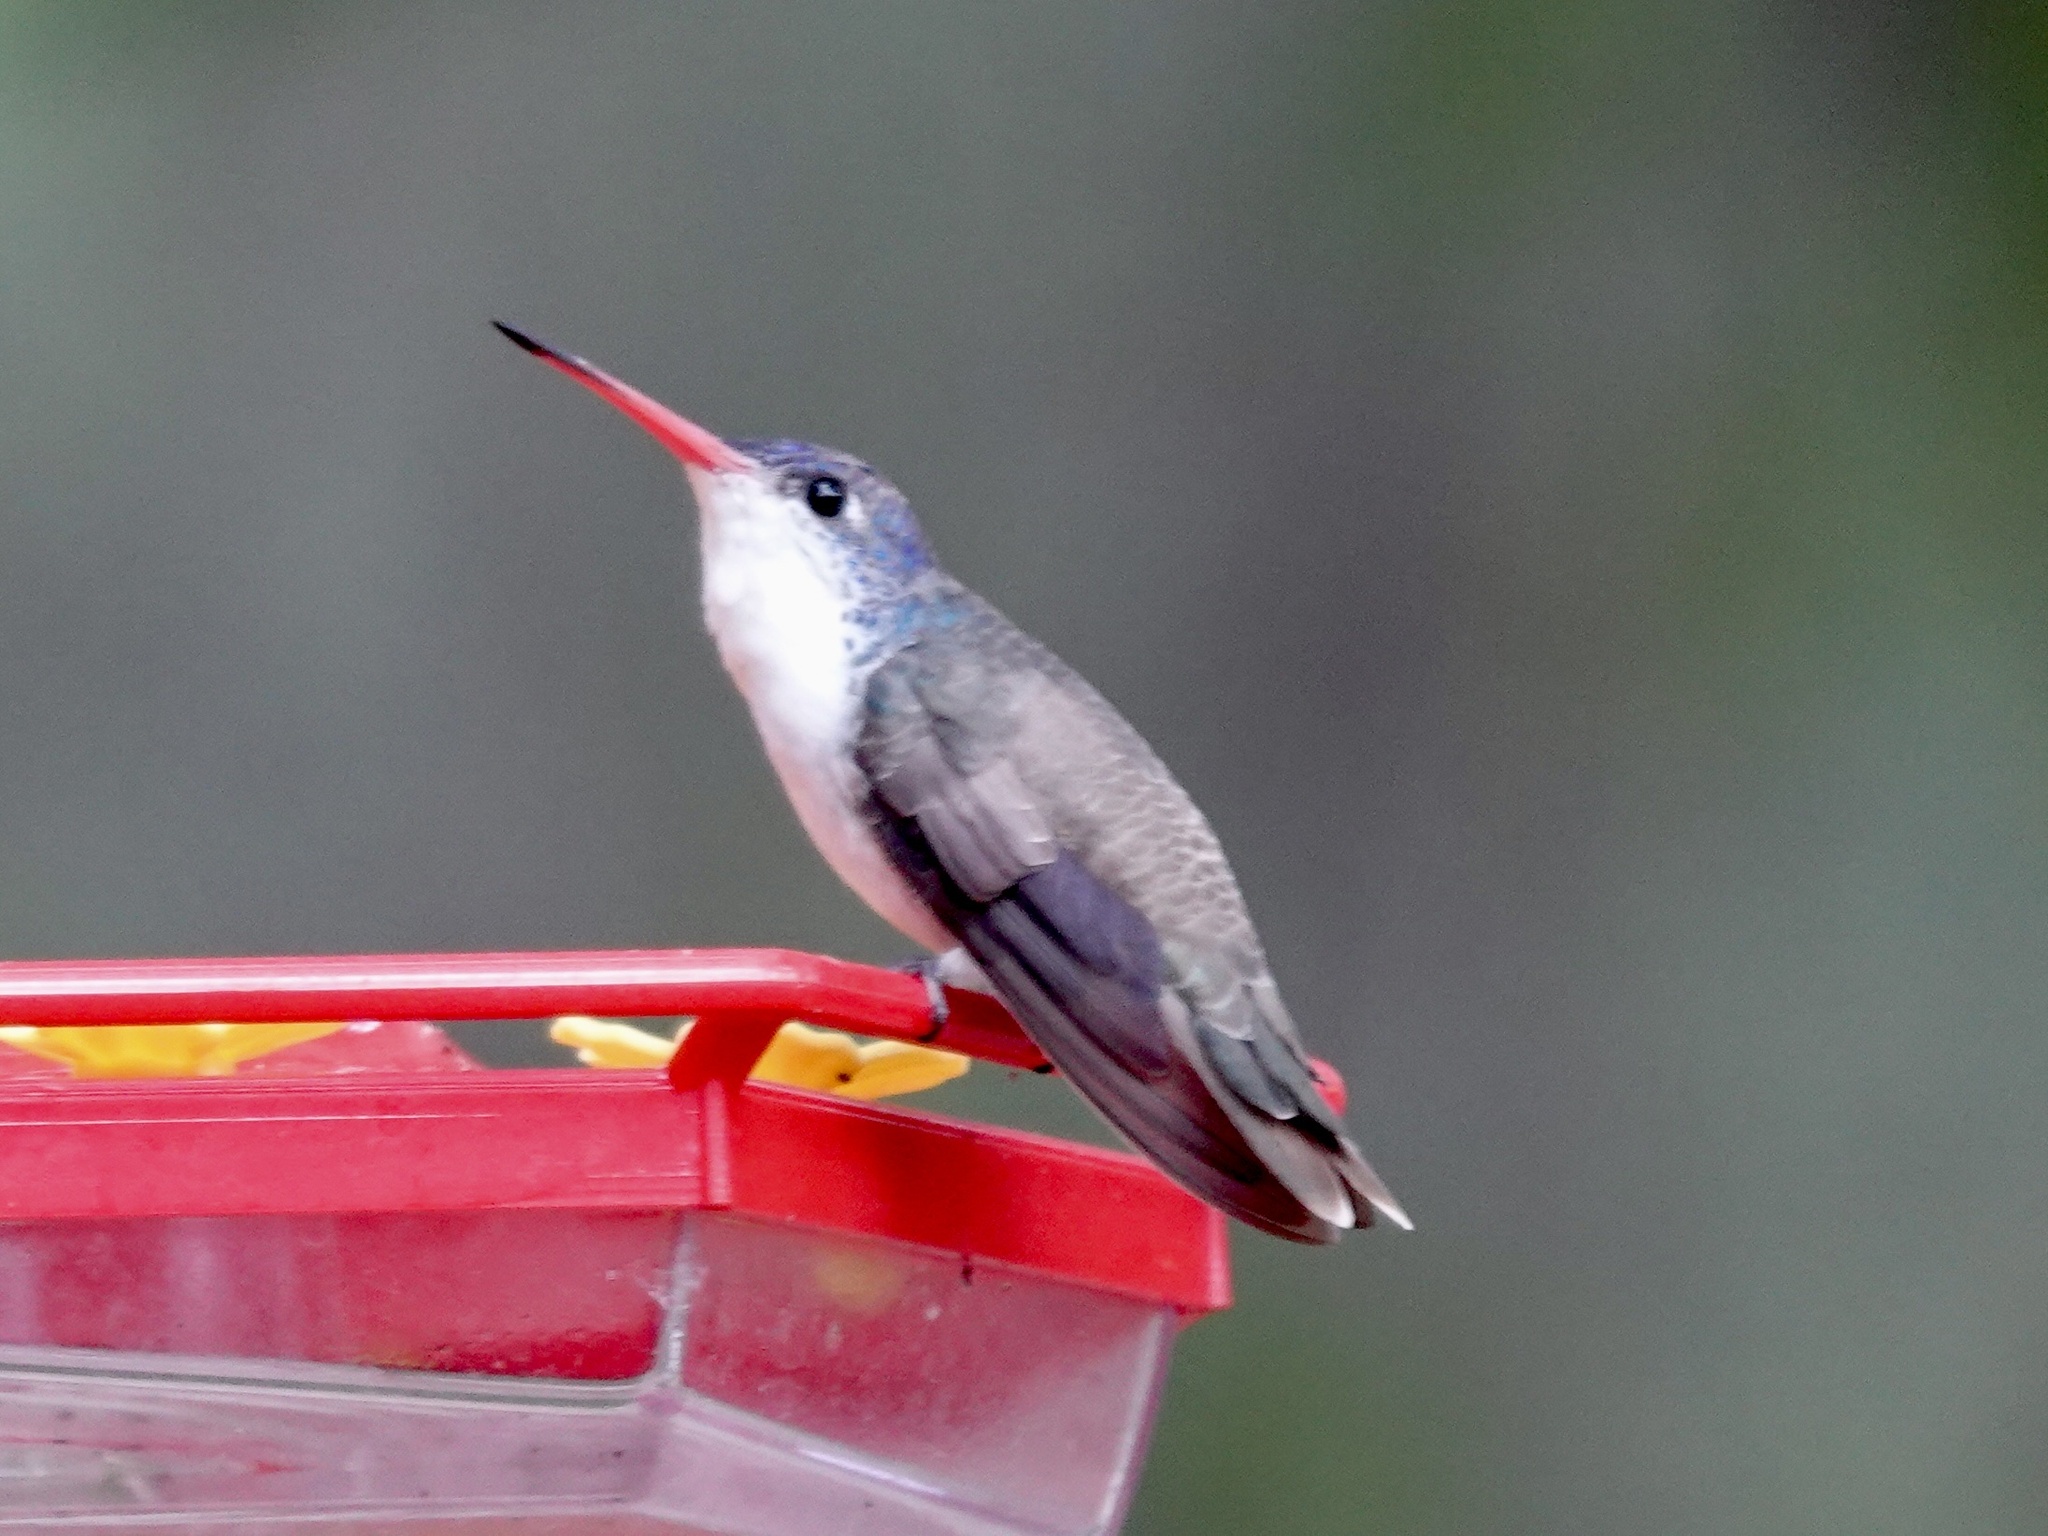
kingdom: Animalia
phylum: Chordata
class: Aves
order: Apodiformes
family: Trochilidae
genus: Leucolia
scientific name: Leucolia violiceps
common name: Violet-crowned hummingbird
